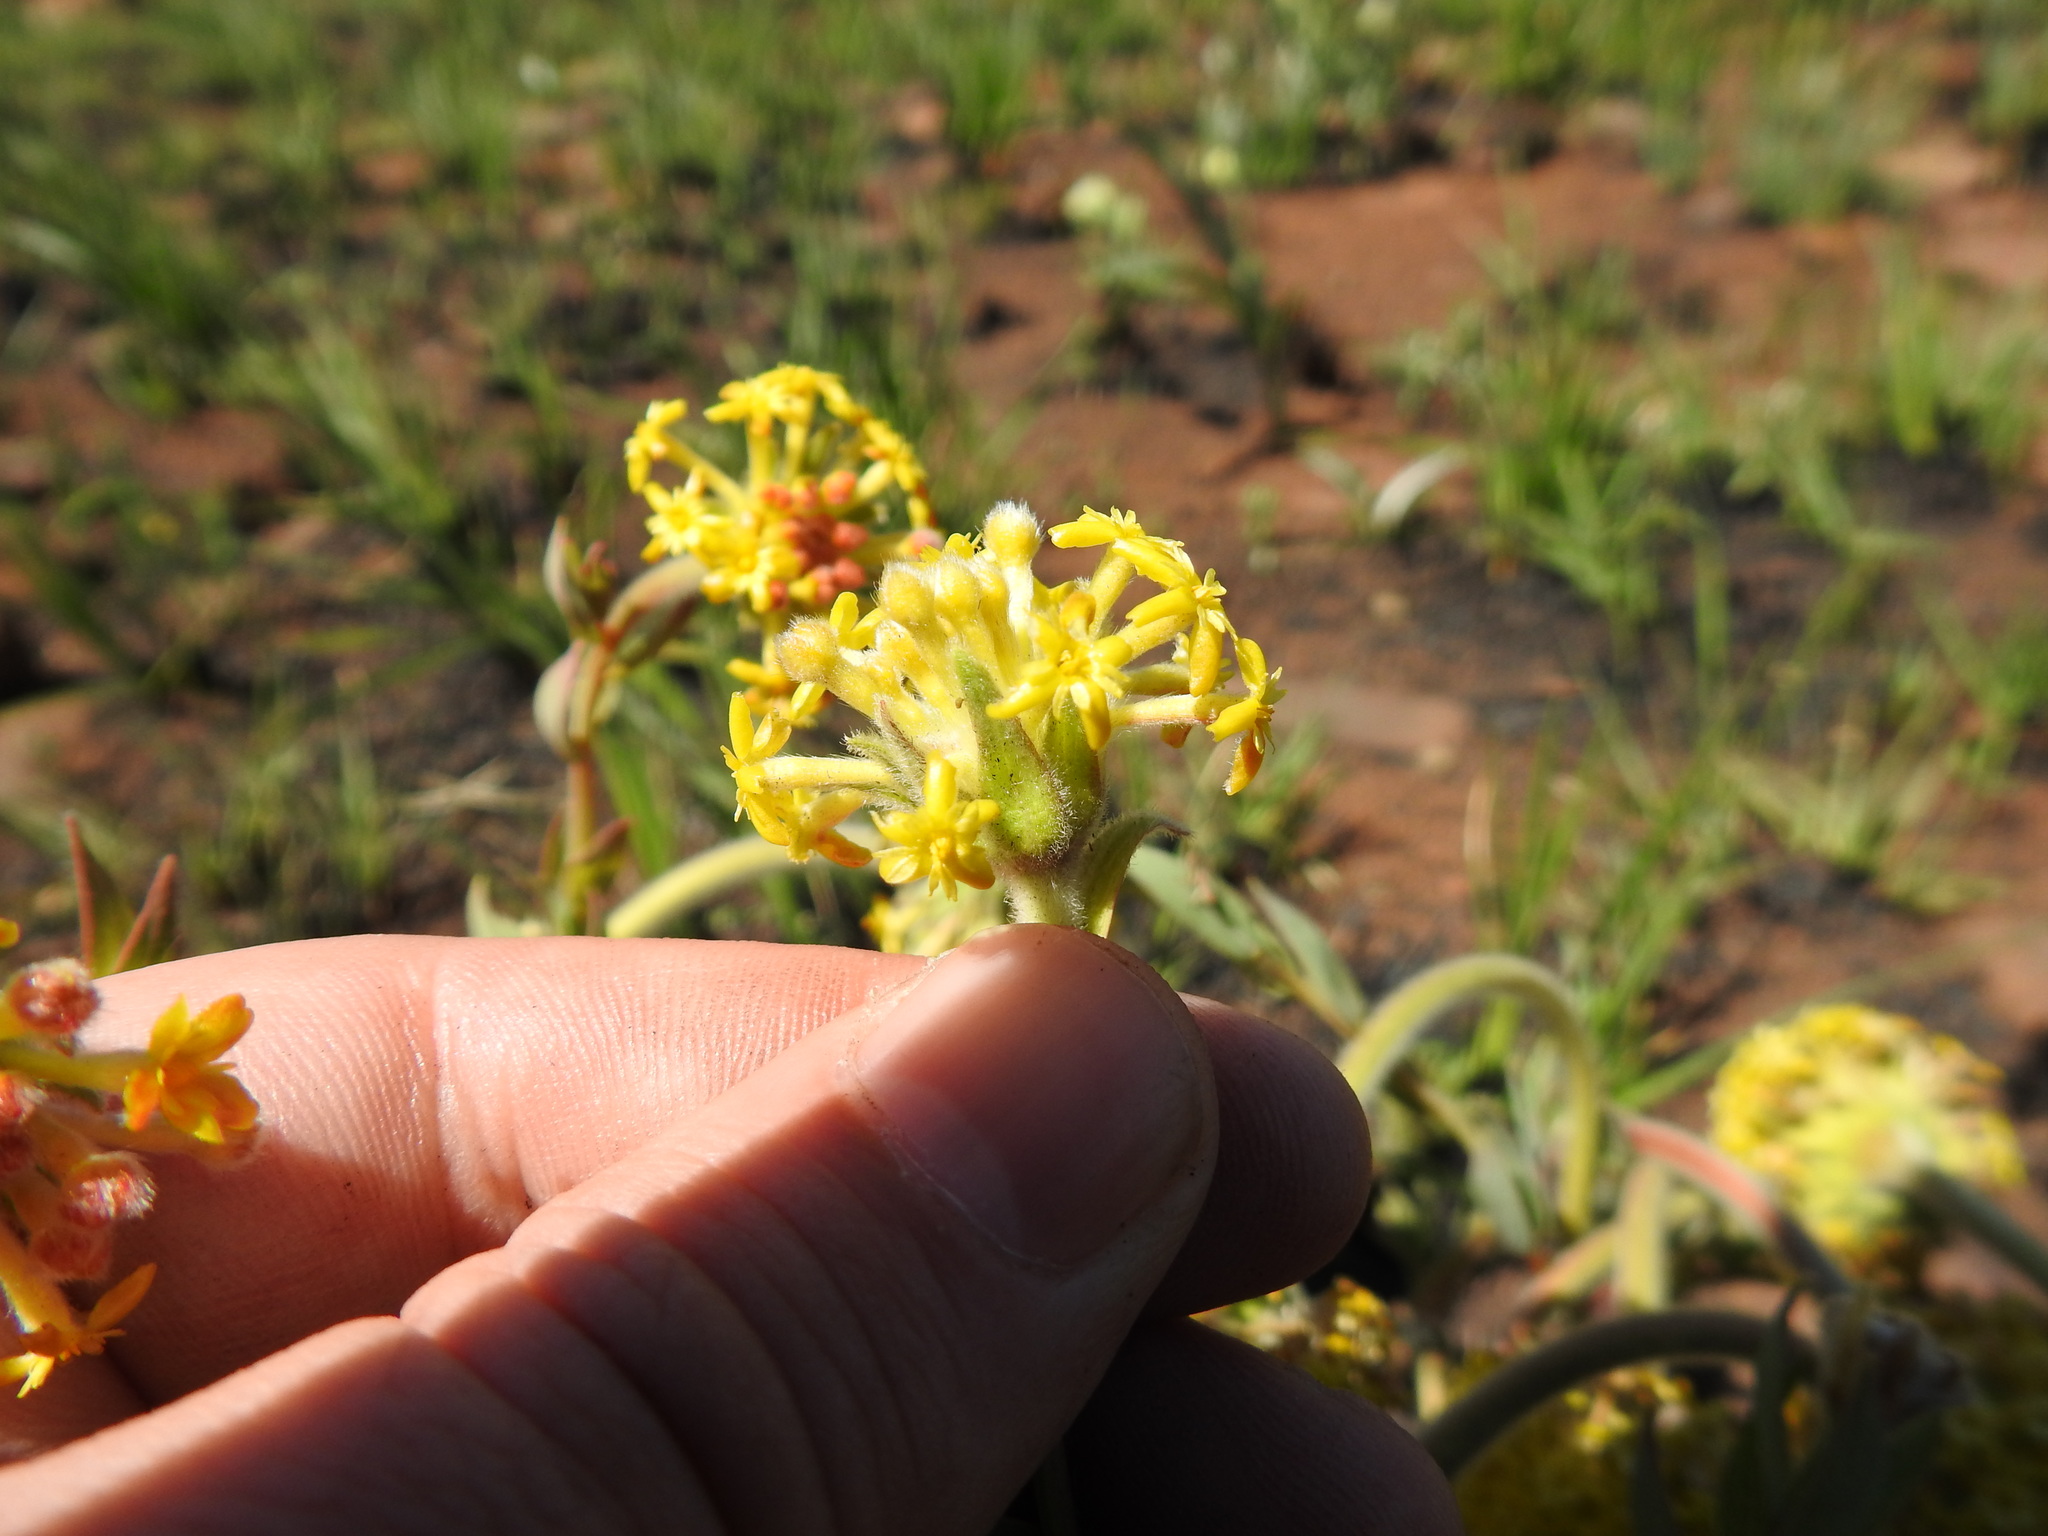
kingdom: Plantae
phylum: Tracheophyta
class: Magnoliopsida
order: Malvales
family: Thymelaeaceae
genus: Gnidia
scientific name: Gnidia kraussiana
